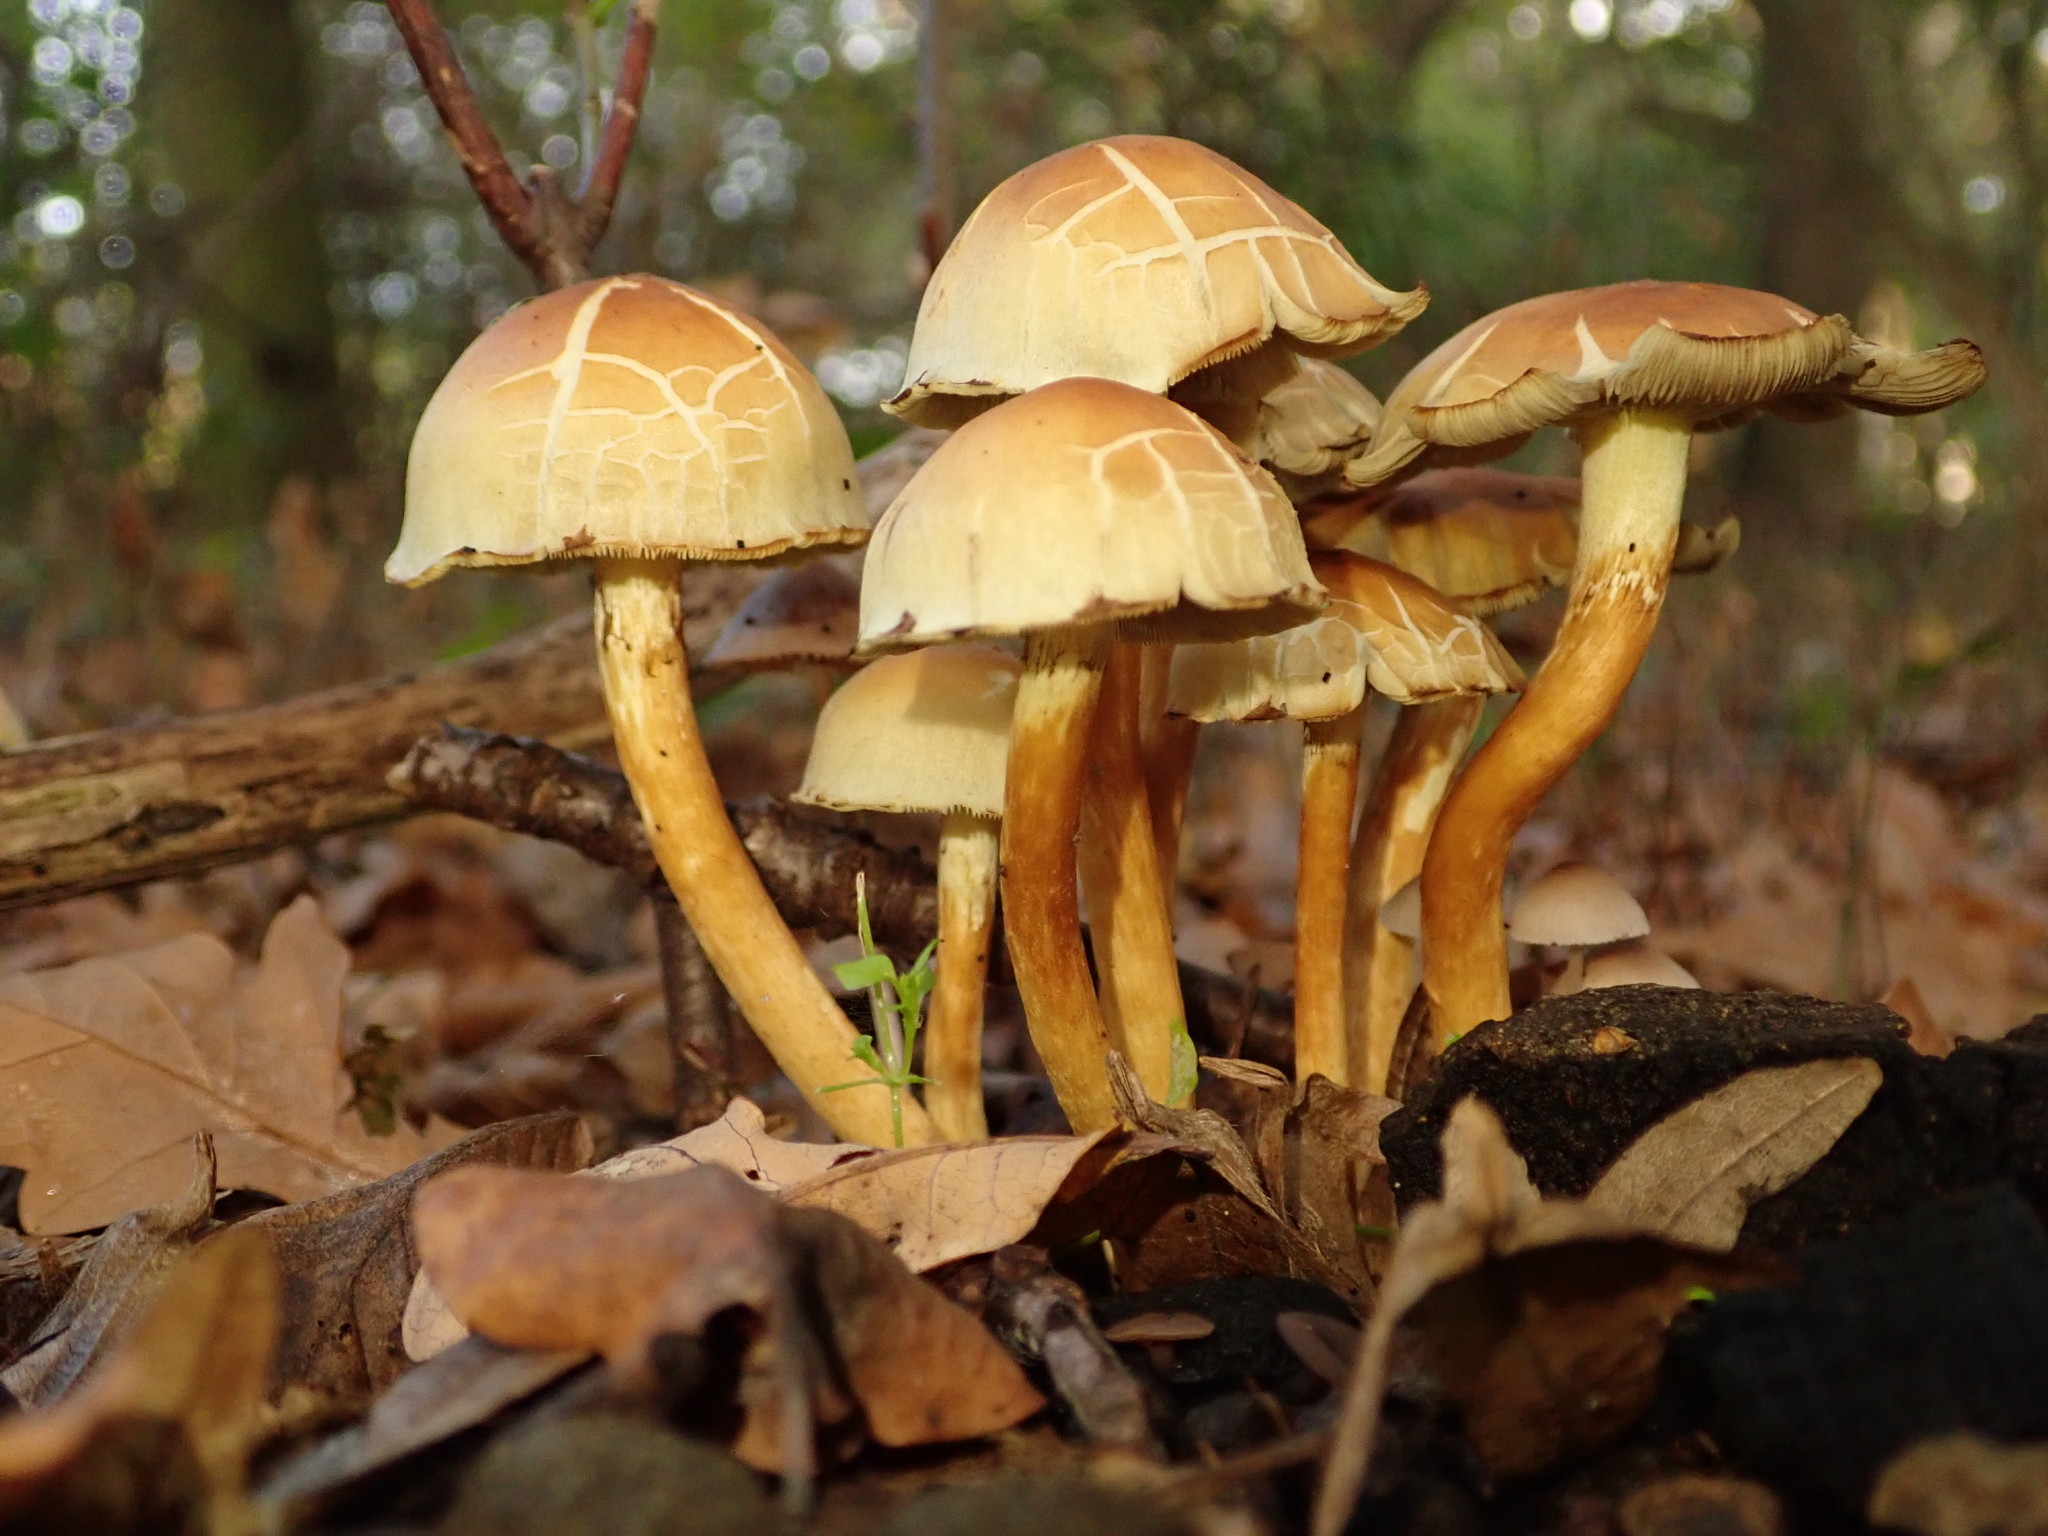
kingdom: Fungi
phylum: Basidiomycota
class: Agaricomycetes
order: Agaricales
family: Strophariaceae
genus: Hypholoma
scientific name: Hypholoma fasciculare
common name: Sulphur tuft
